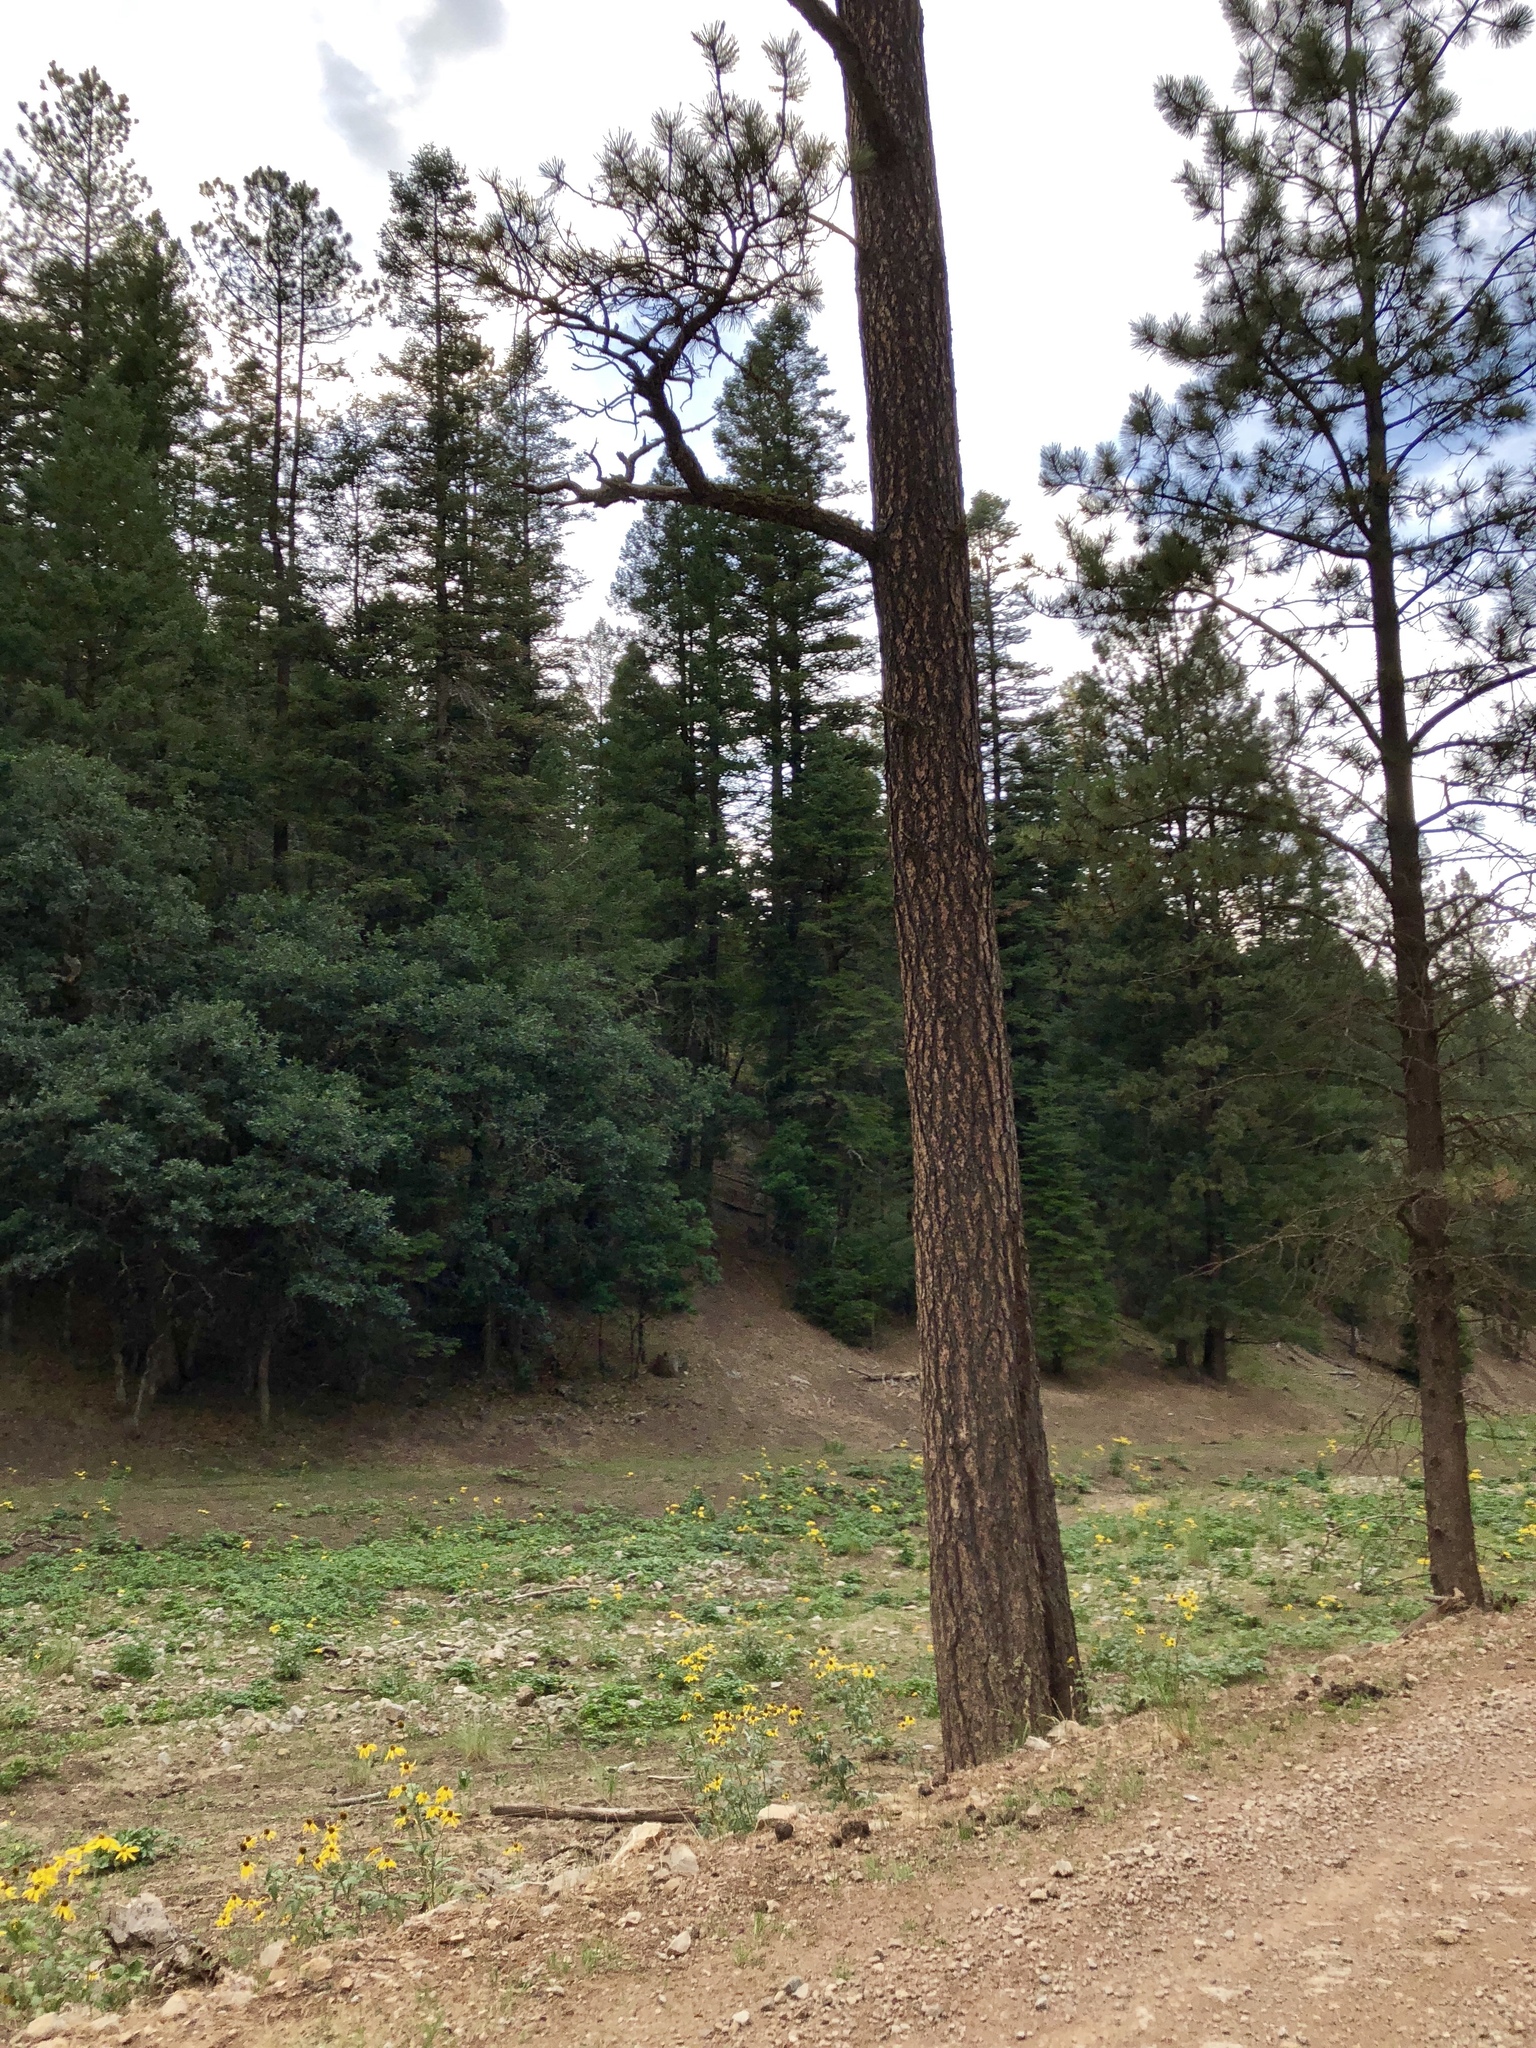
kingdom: Plantae
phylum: Tracheophyta
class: Pinopsida
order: Pinales
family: Pinaceae
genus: Pinus
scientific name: Pinus ponderosa
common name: Western yellow-pine
